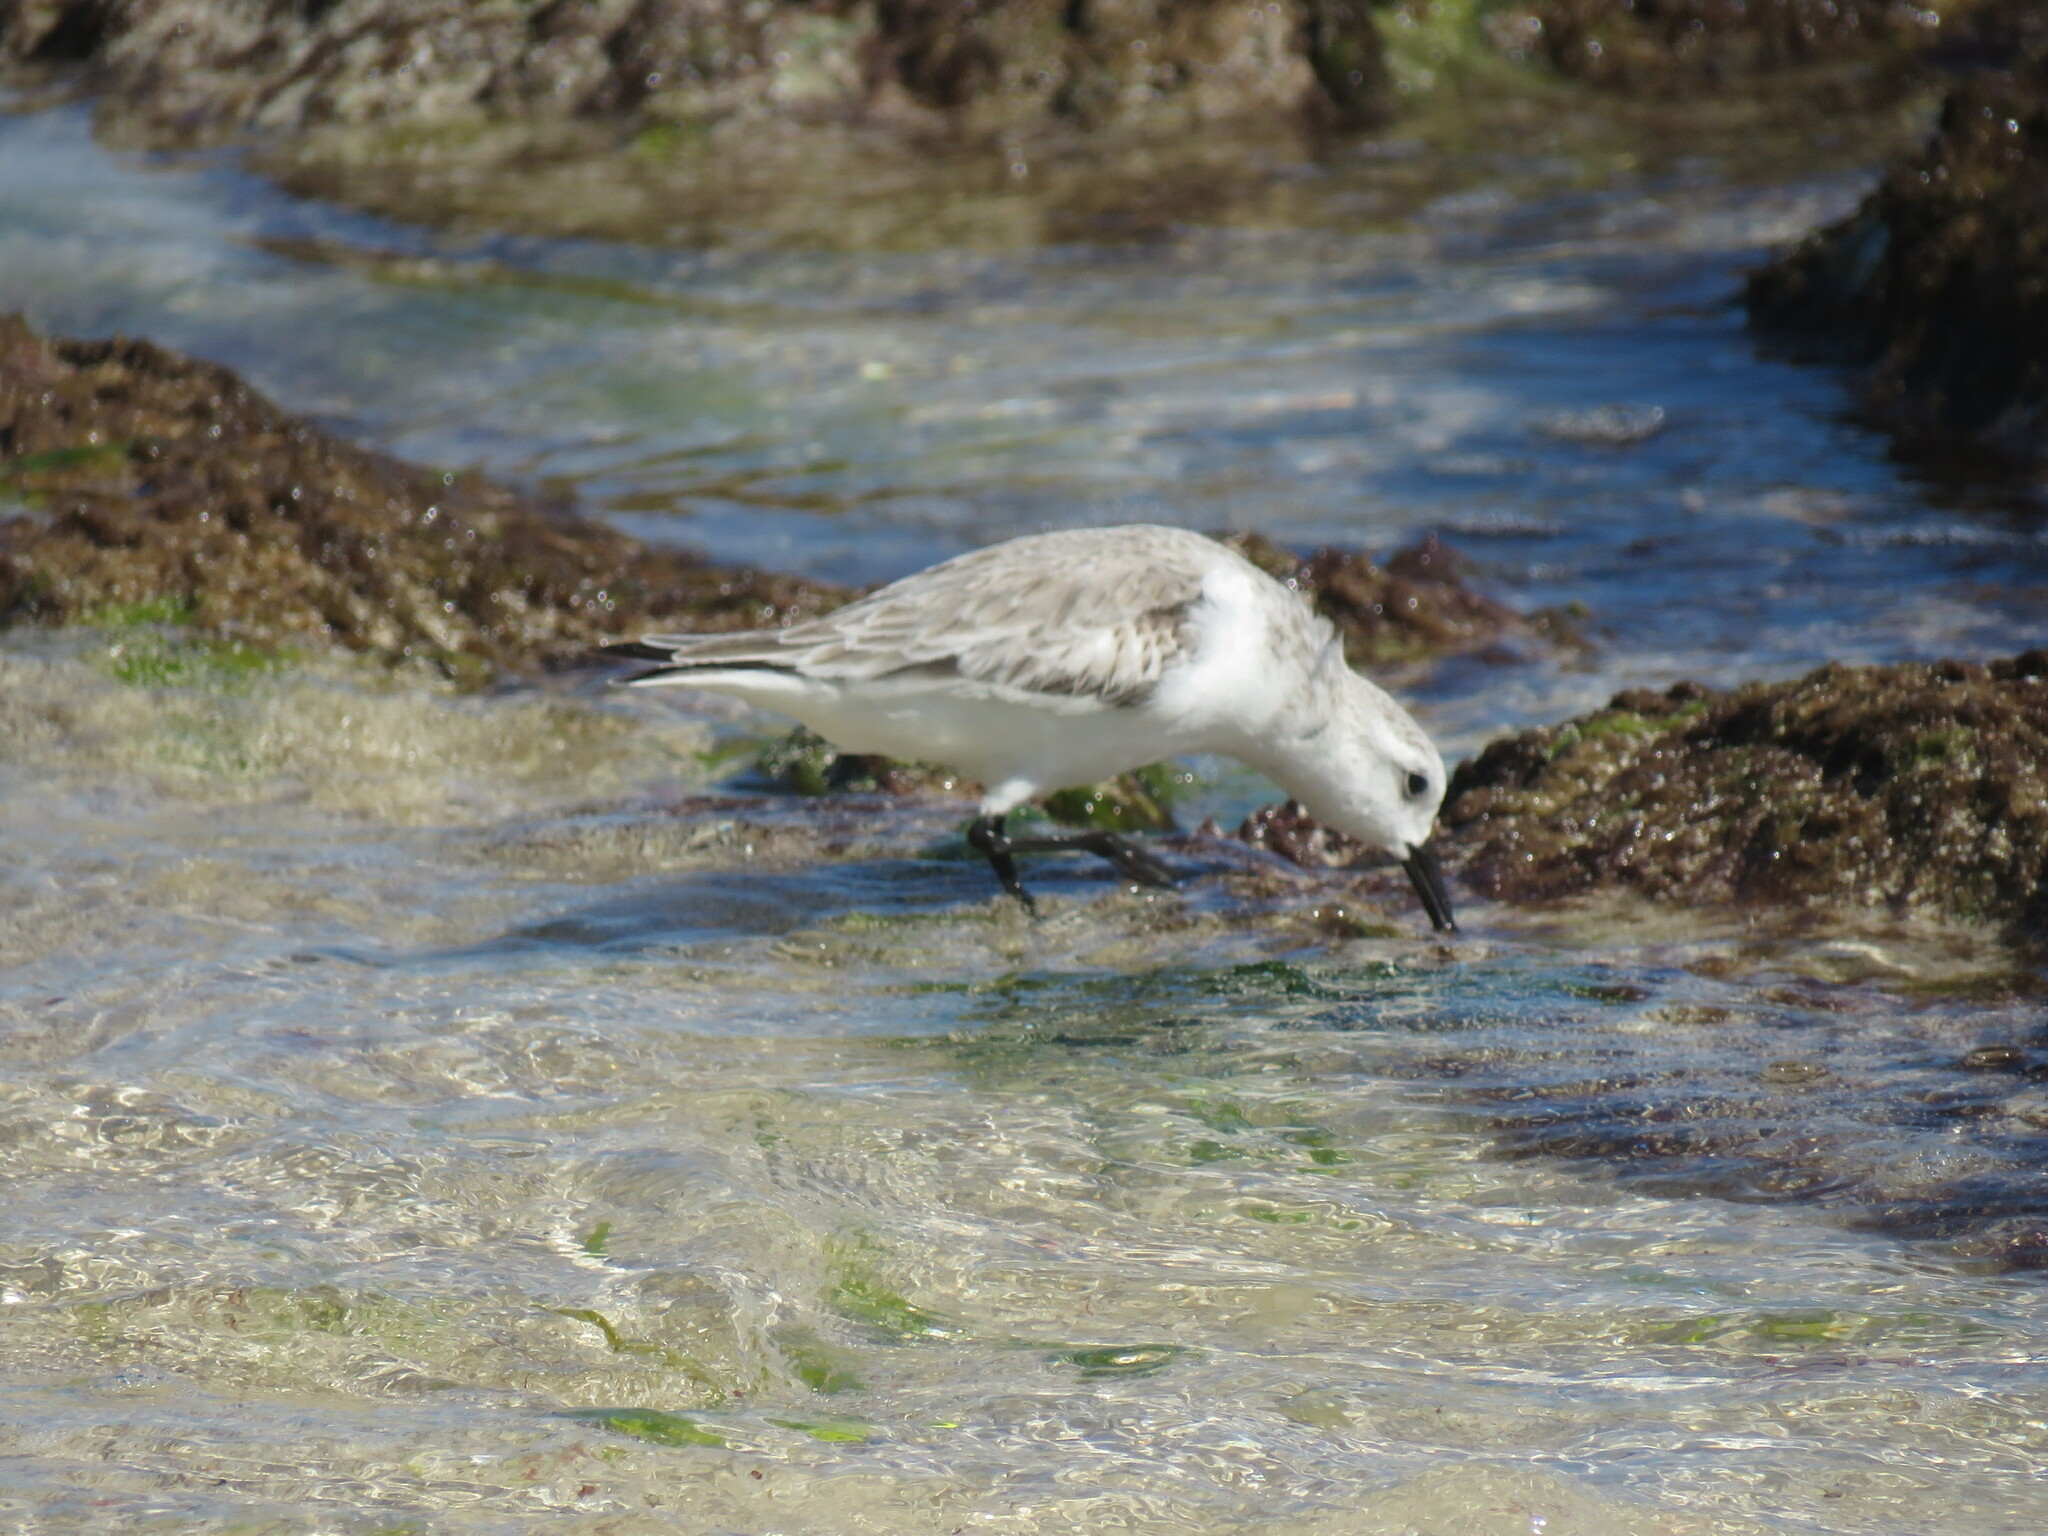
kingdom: Animalia
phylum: Chordata
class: Aves
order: Charadriiformes
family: Scolopacidae
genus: Calidris
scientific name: Calidris alba
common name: Sanderling
